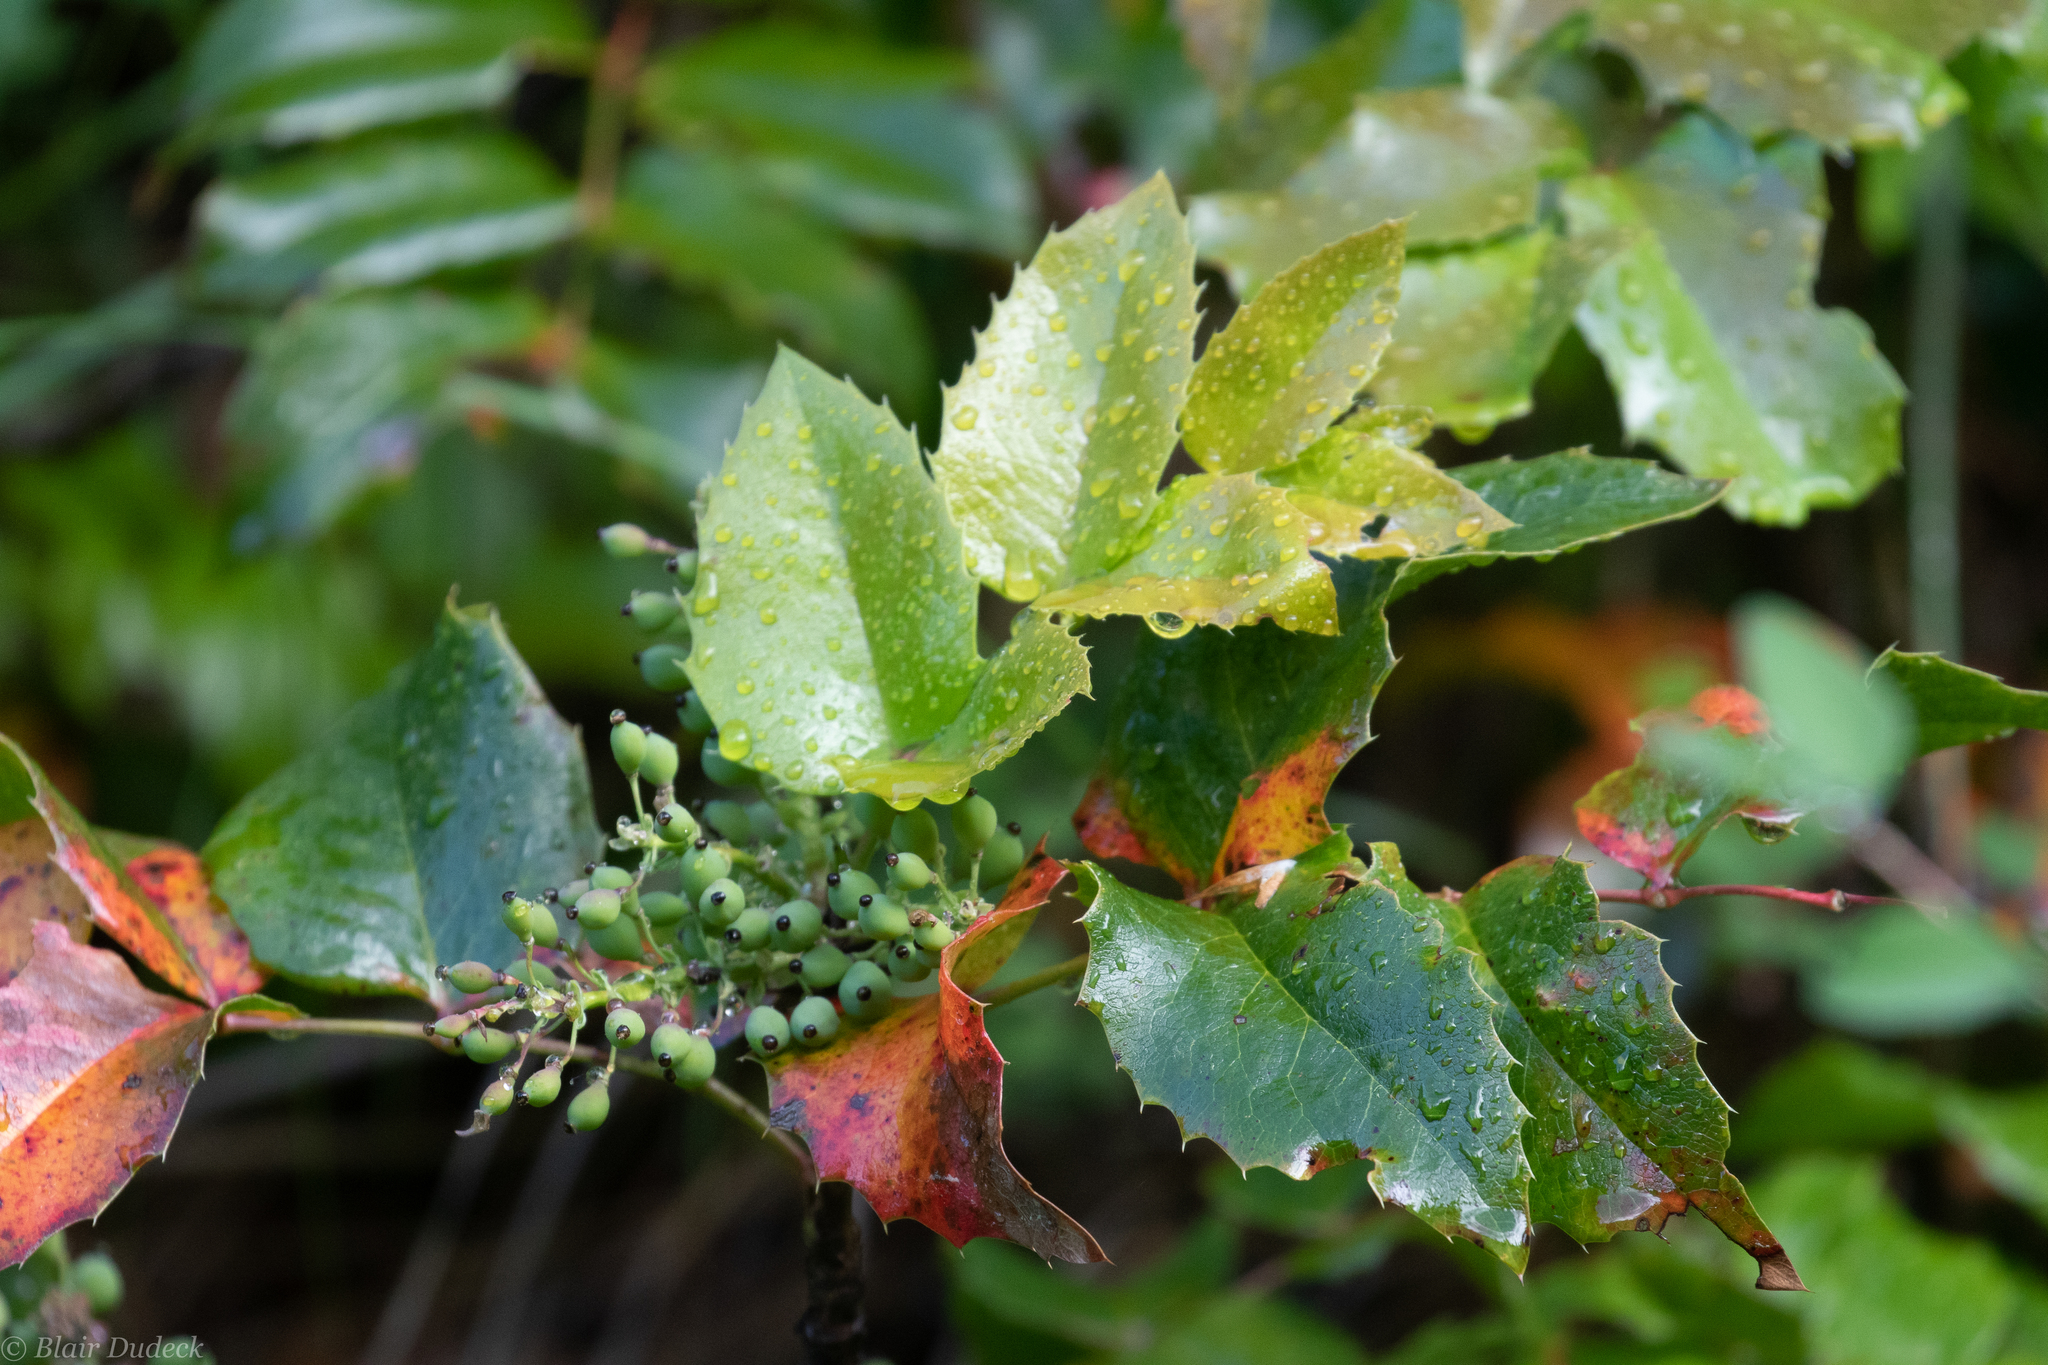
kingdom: Plantae
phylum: Tracheophyta
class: Magnoliopsida
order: Ranunculales
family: Berberidaceae
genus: Mahonia
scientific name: Mahonia aquifolium
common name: Oregon-grape
